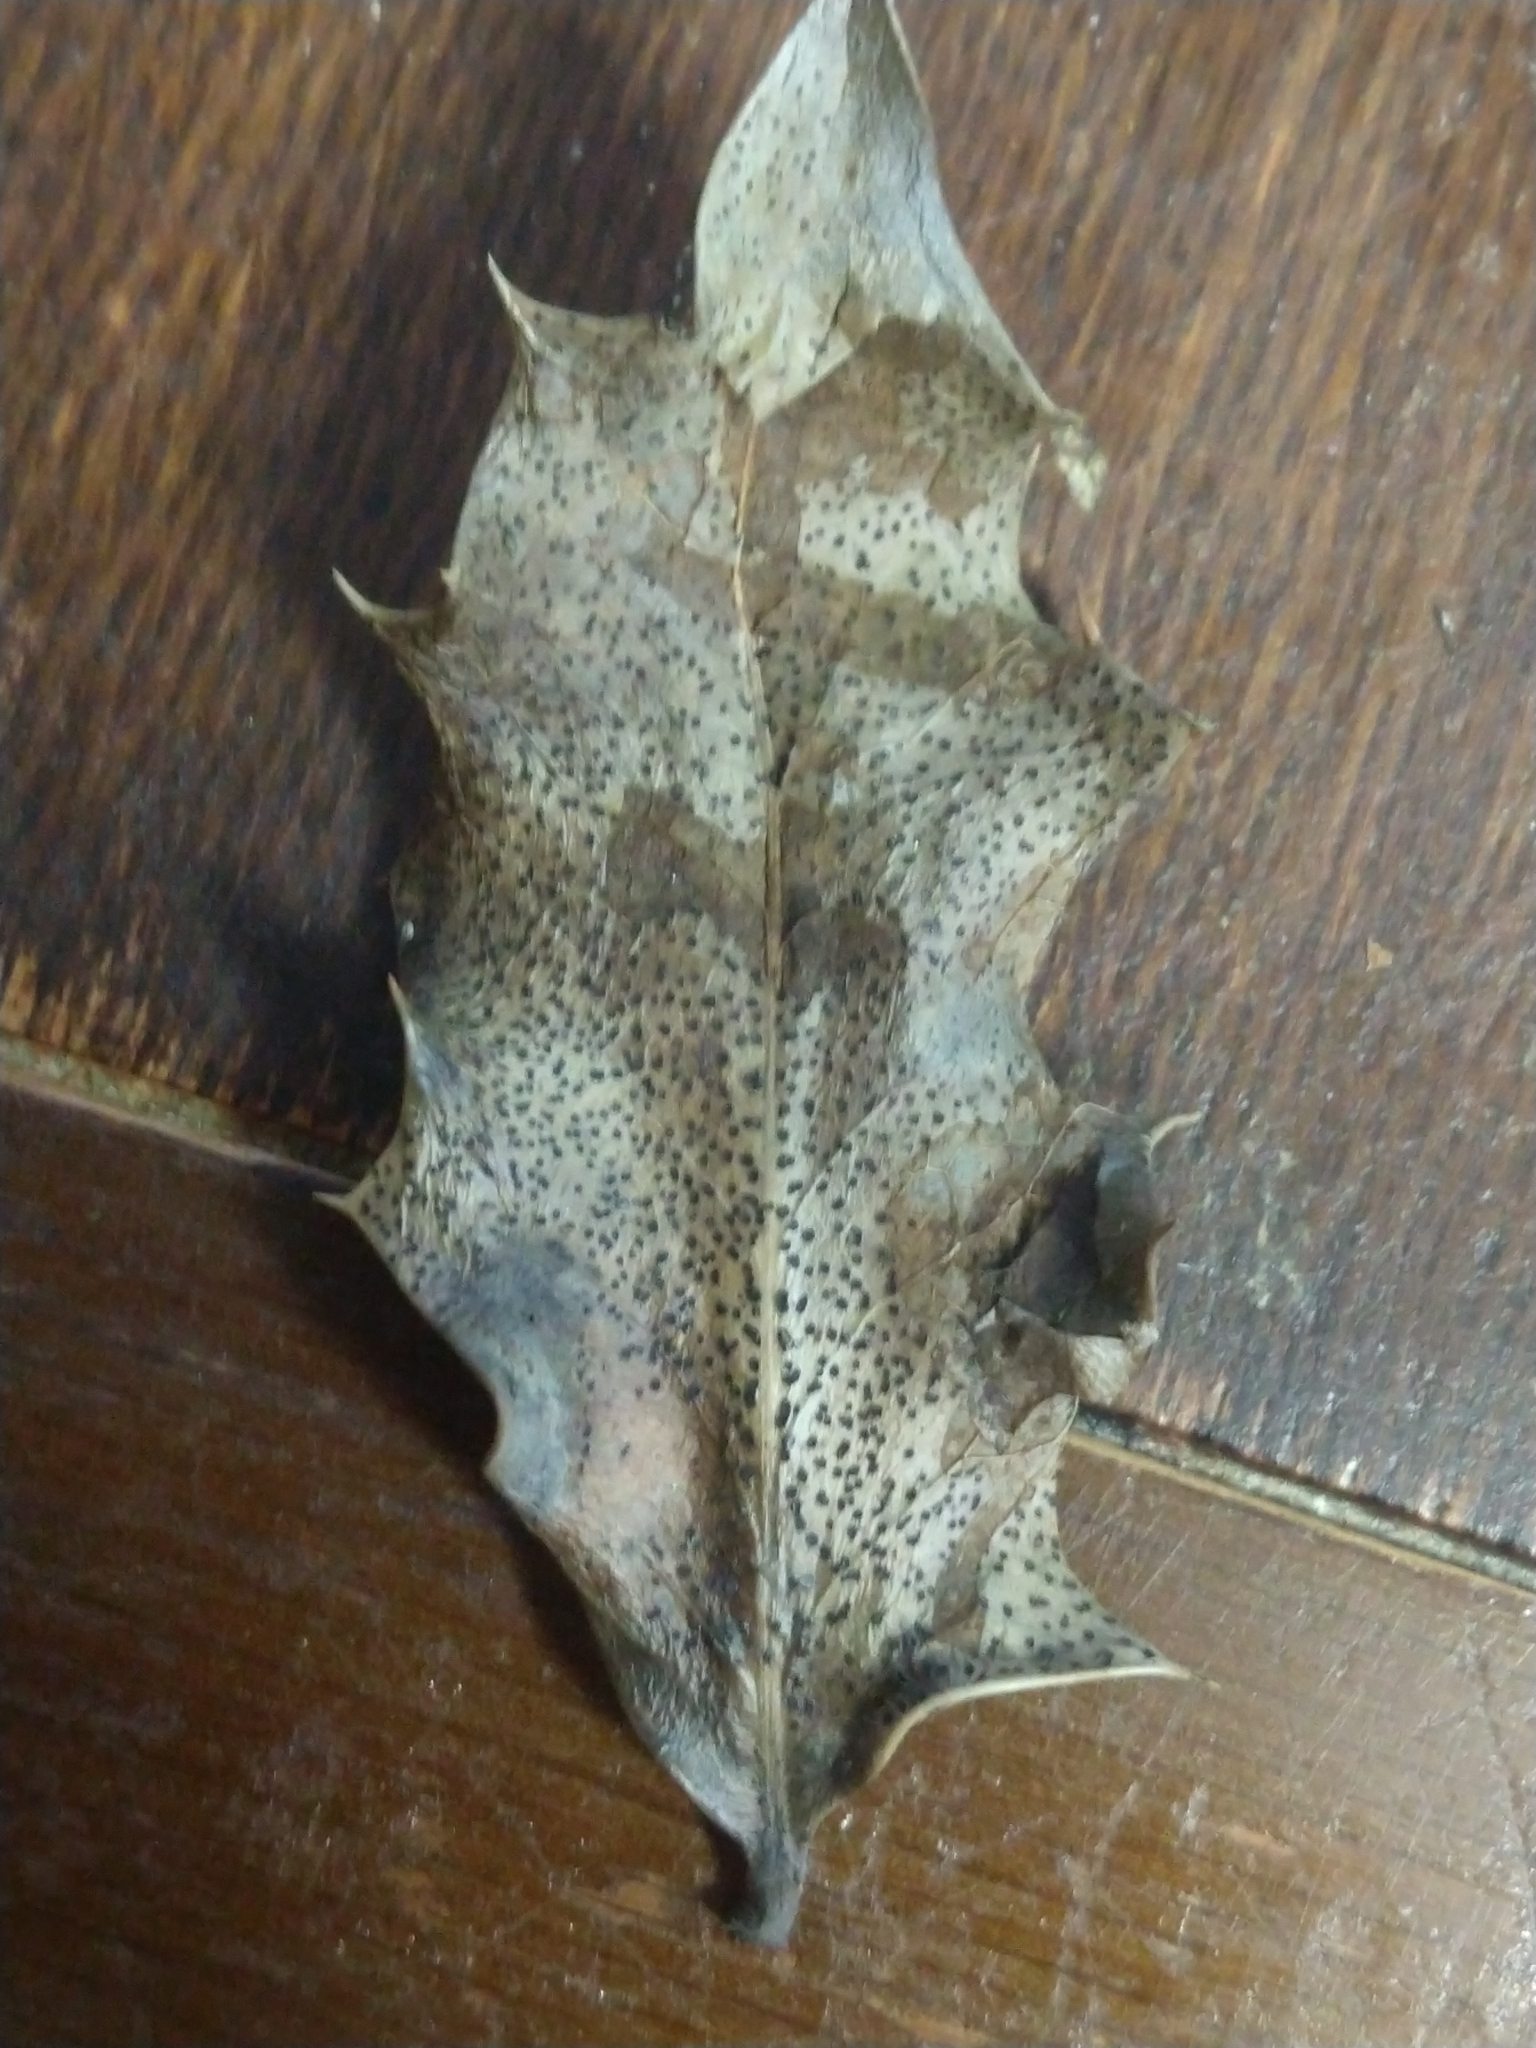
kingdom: Fungi
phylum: Ascomycota
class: Leotiomycetes
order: Helotiales
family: Cenangiaceae
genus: Trochila
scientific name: Trochila ilicina
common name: Holly speckle
